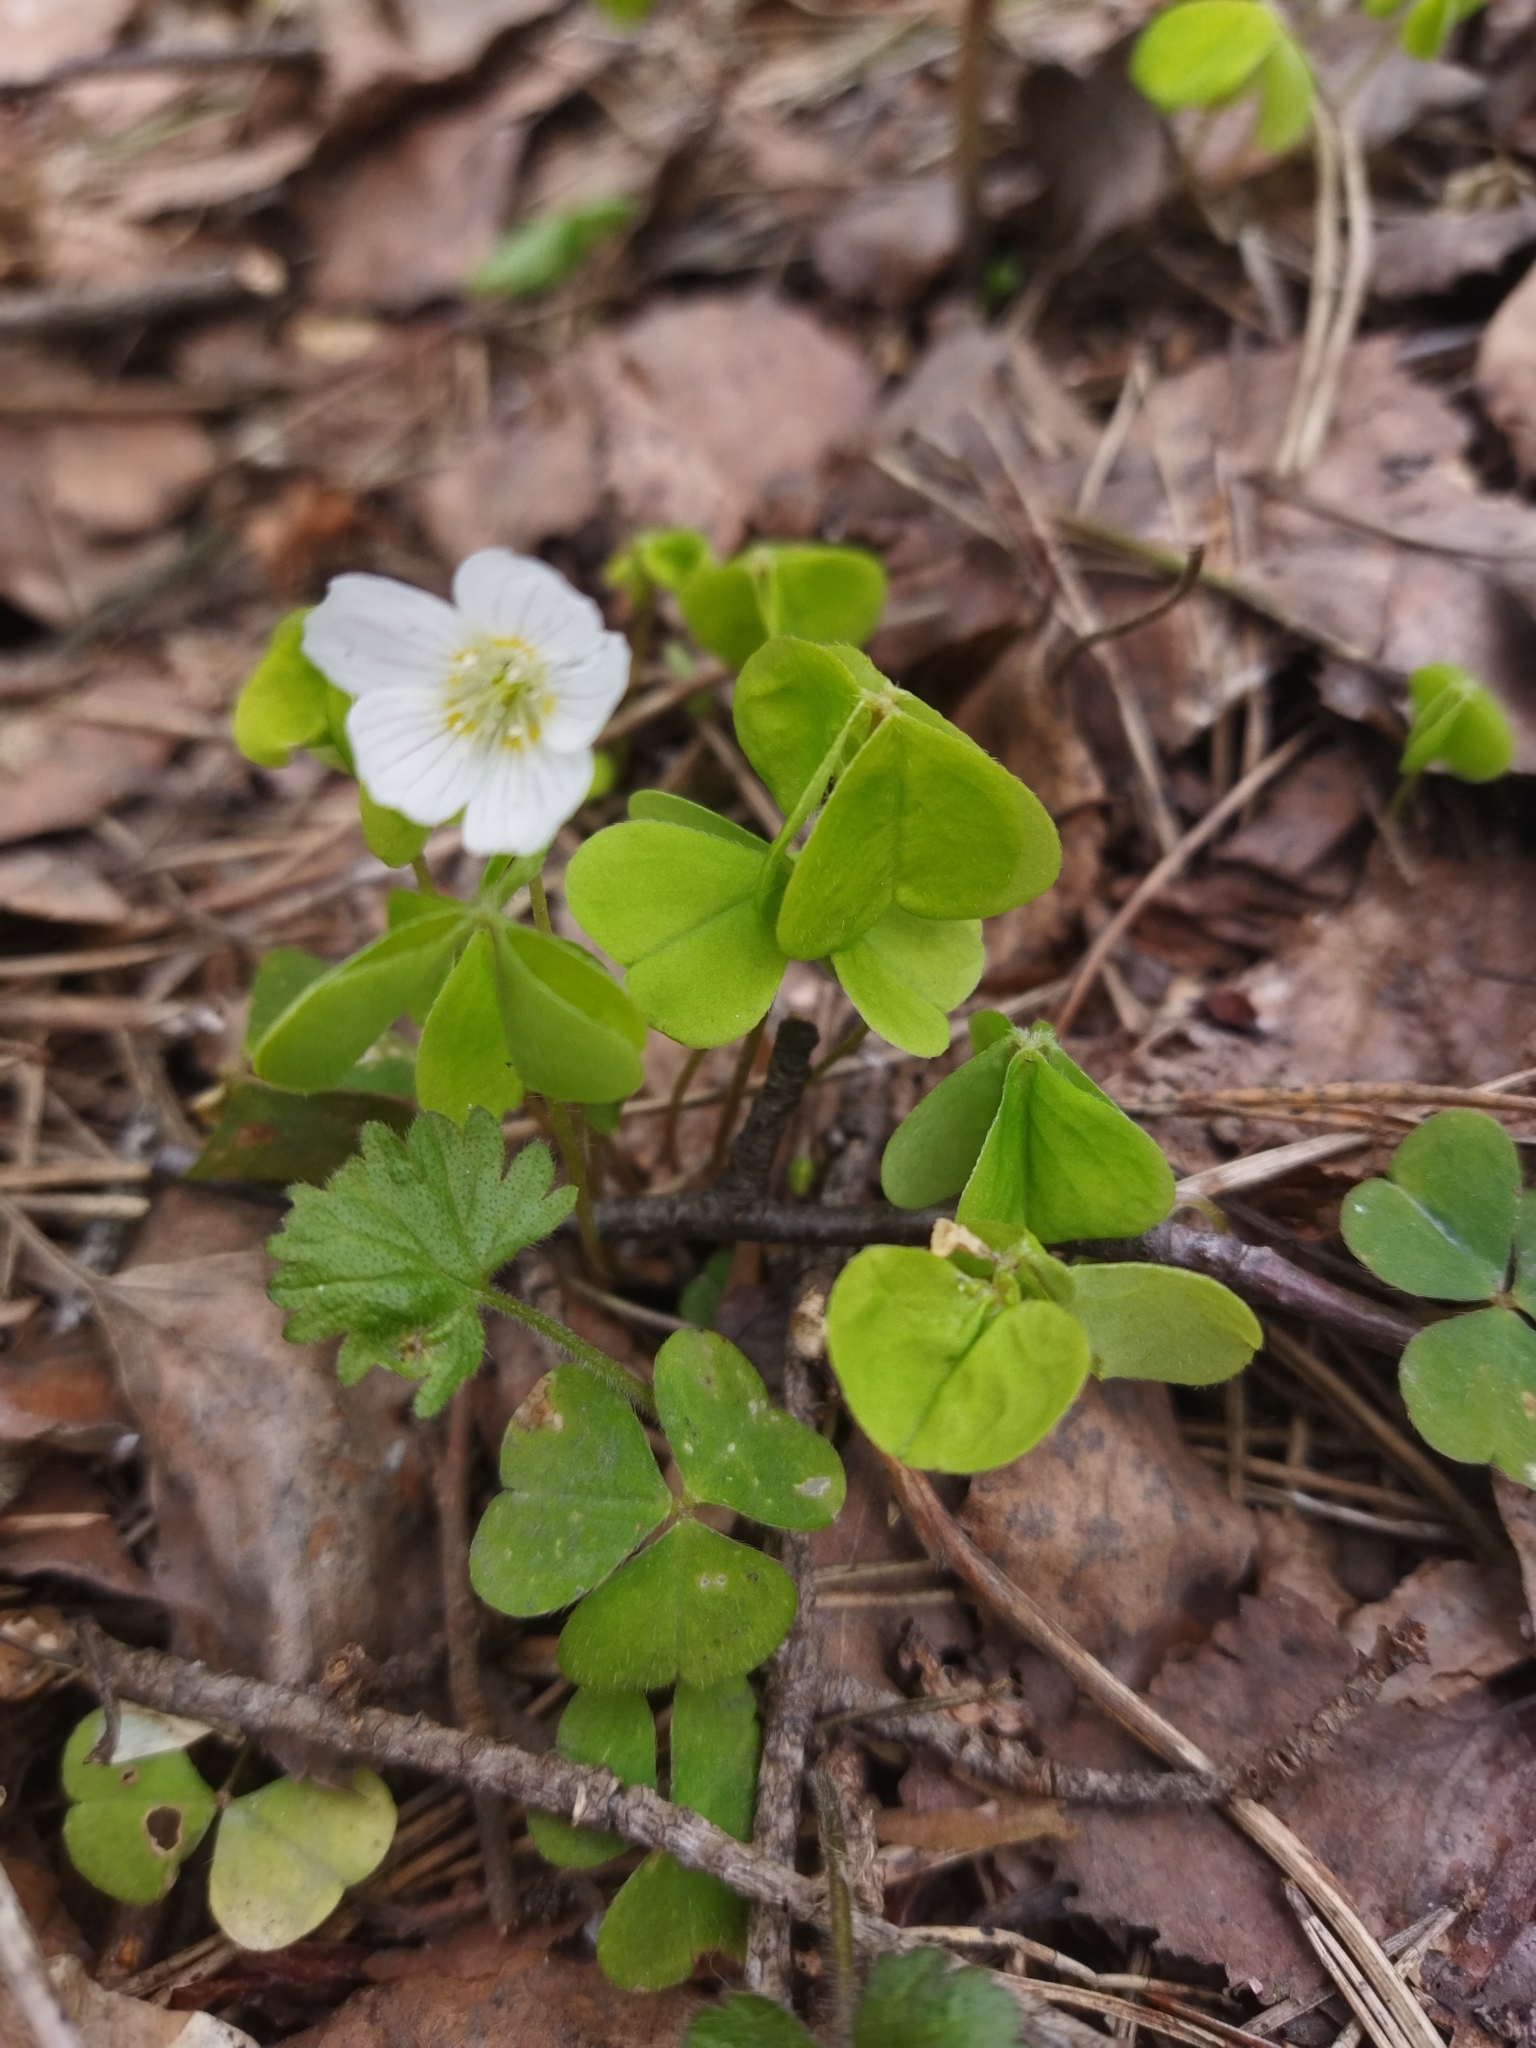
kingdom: Plantae
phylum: Tracheophyta
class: Magnoliopsida
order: Oxalidales
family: Oxalidaceae
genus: Oxalis
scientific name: Oxalis acetosella
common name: Wood-sorrel
